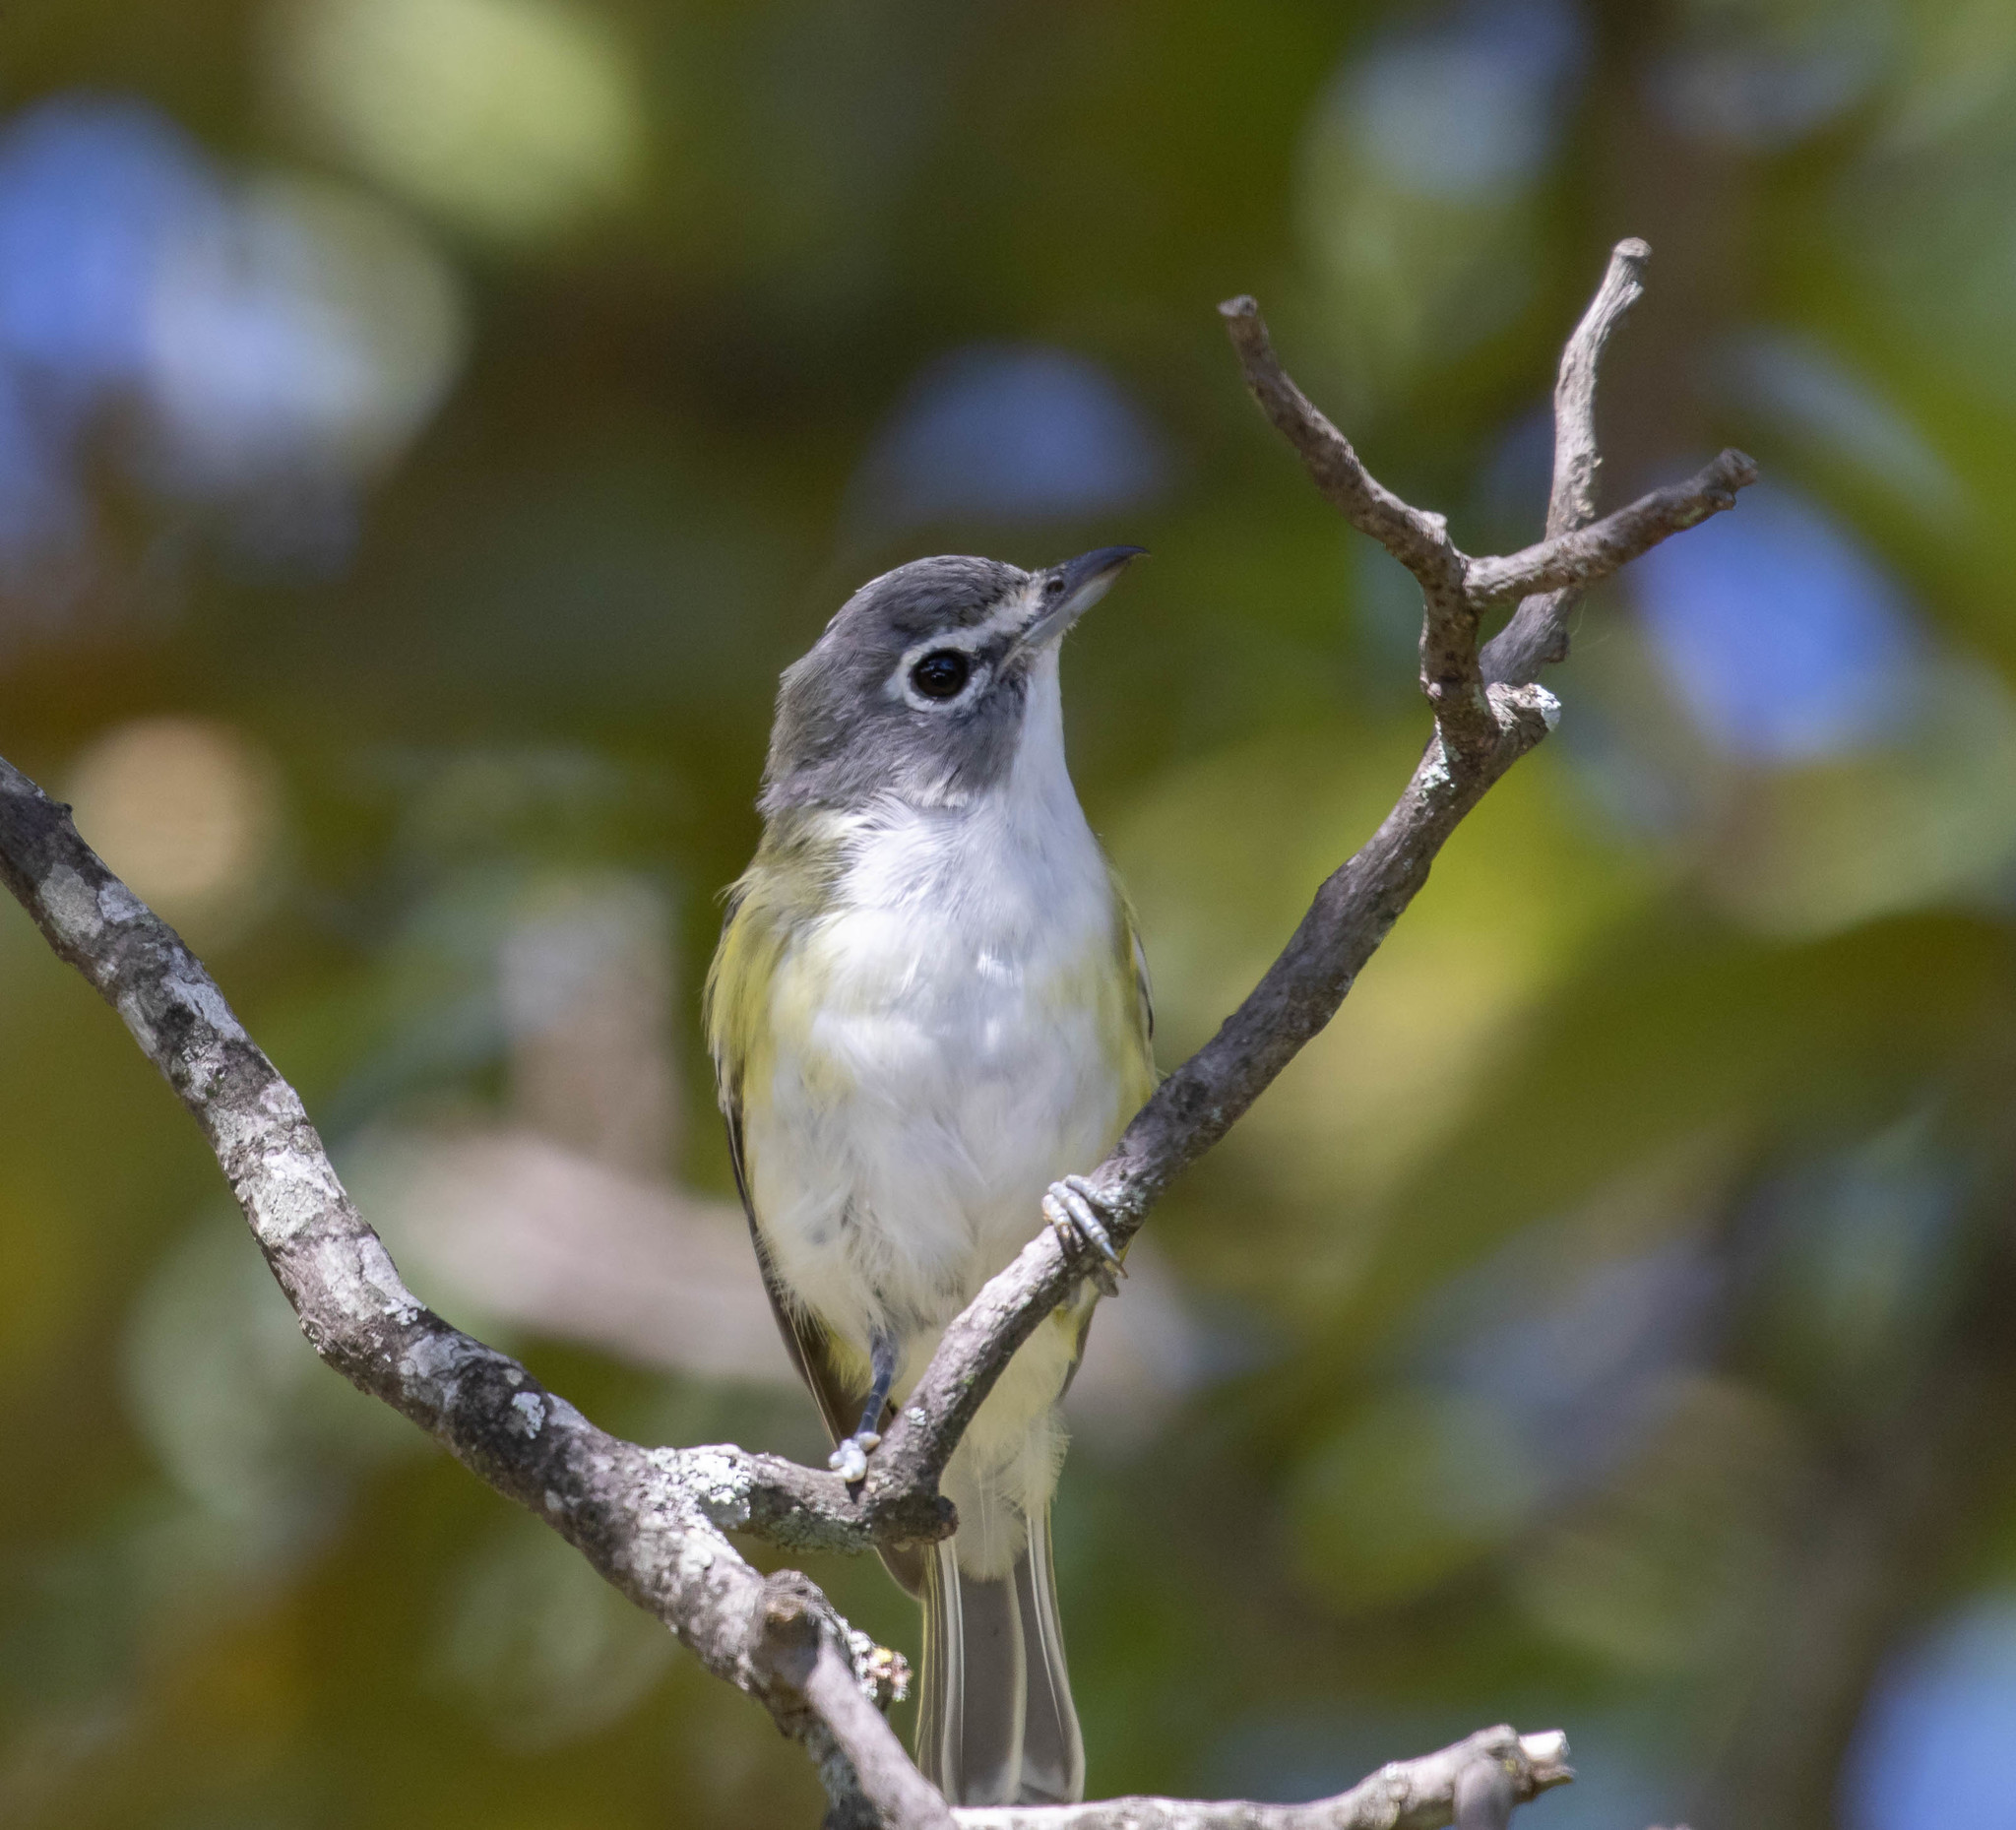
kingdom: Animalia
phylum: Chordata
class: Aves
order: Passeriformes
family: Vireonidae
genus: Vireo
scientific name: Vireo solitarius
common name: Blue-headed vireo
